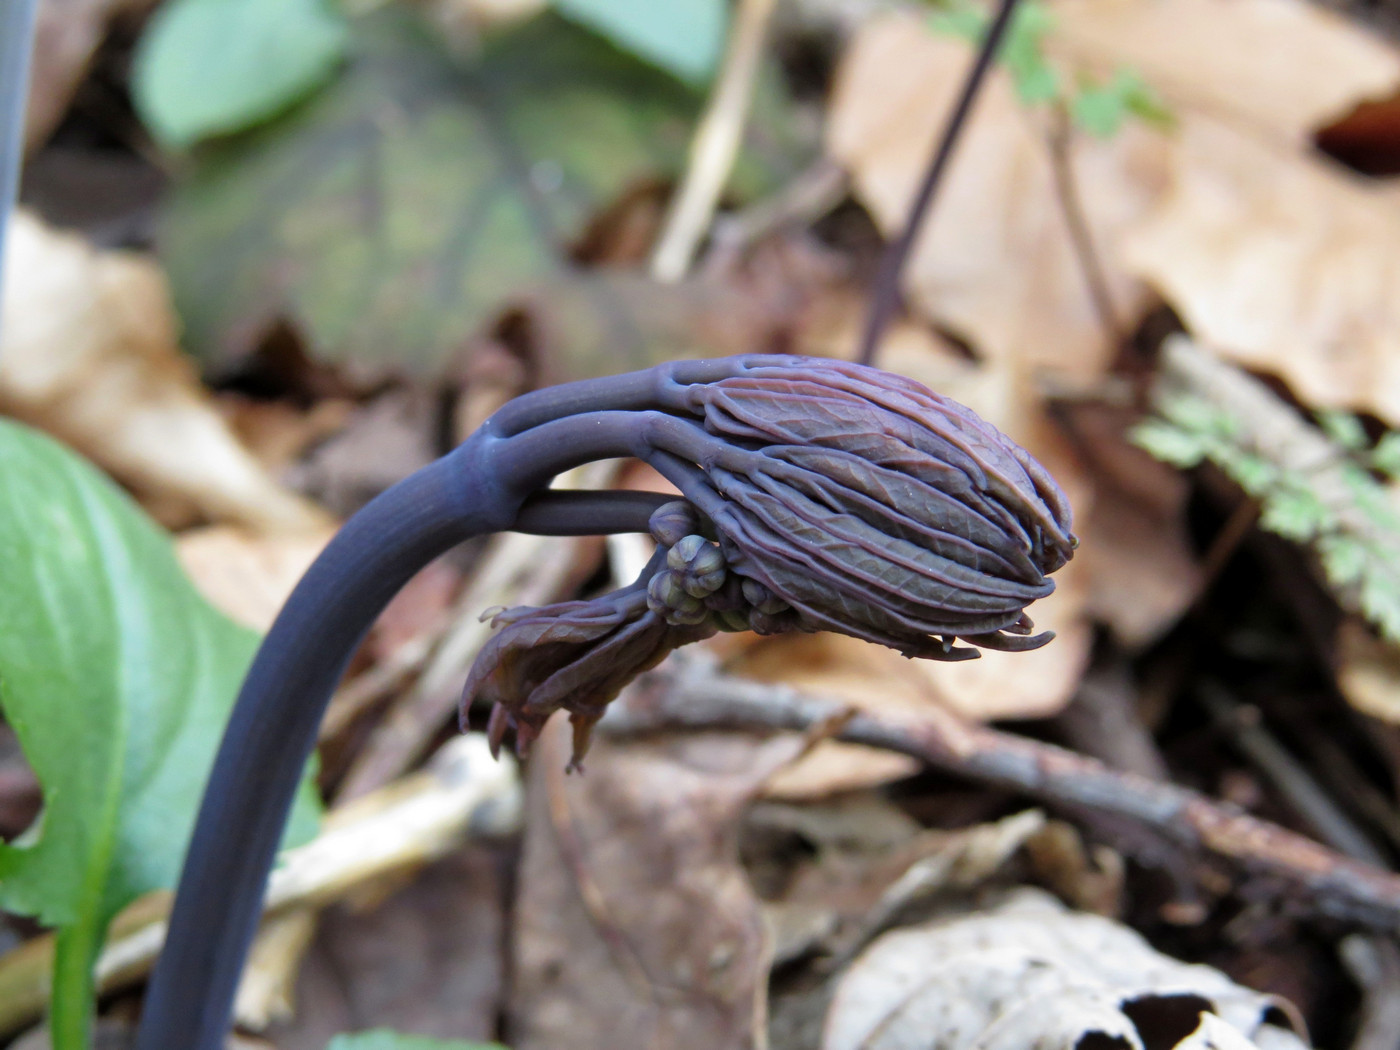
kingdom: Plantae
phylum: Tracheophyta
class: Magnoliopsida
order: Ranunculales
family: Berberidaceae
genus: Caulophyllum
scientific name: Caulophyllum thalictroides
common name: Blue cohosh
